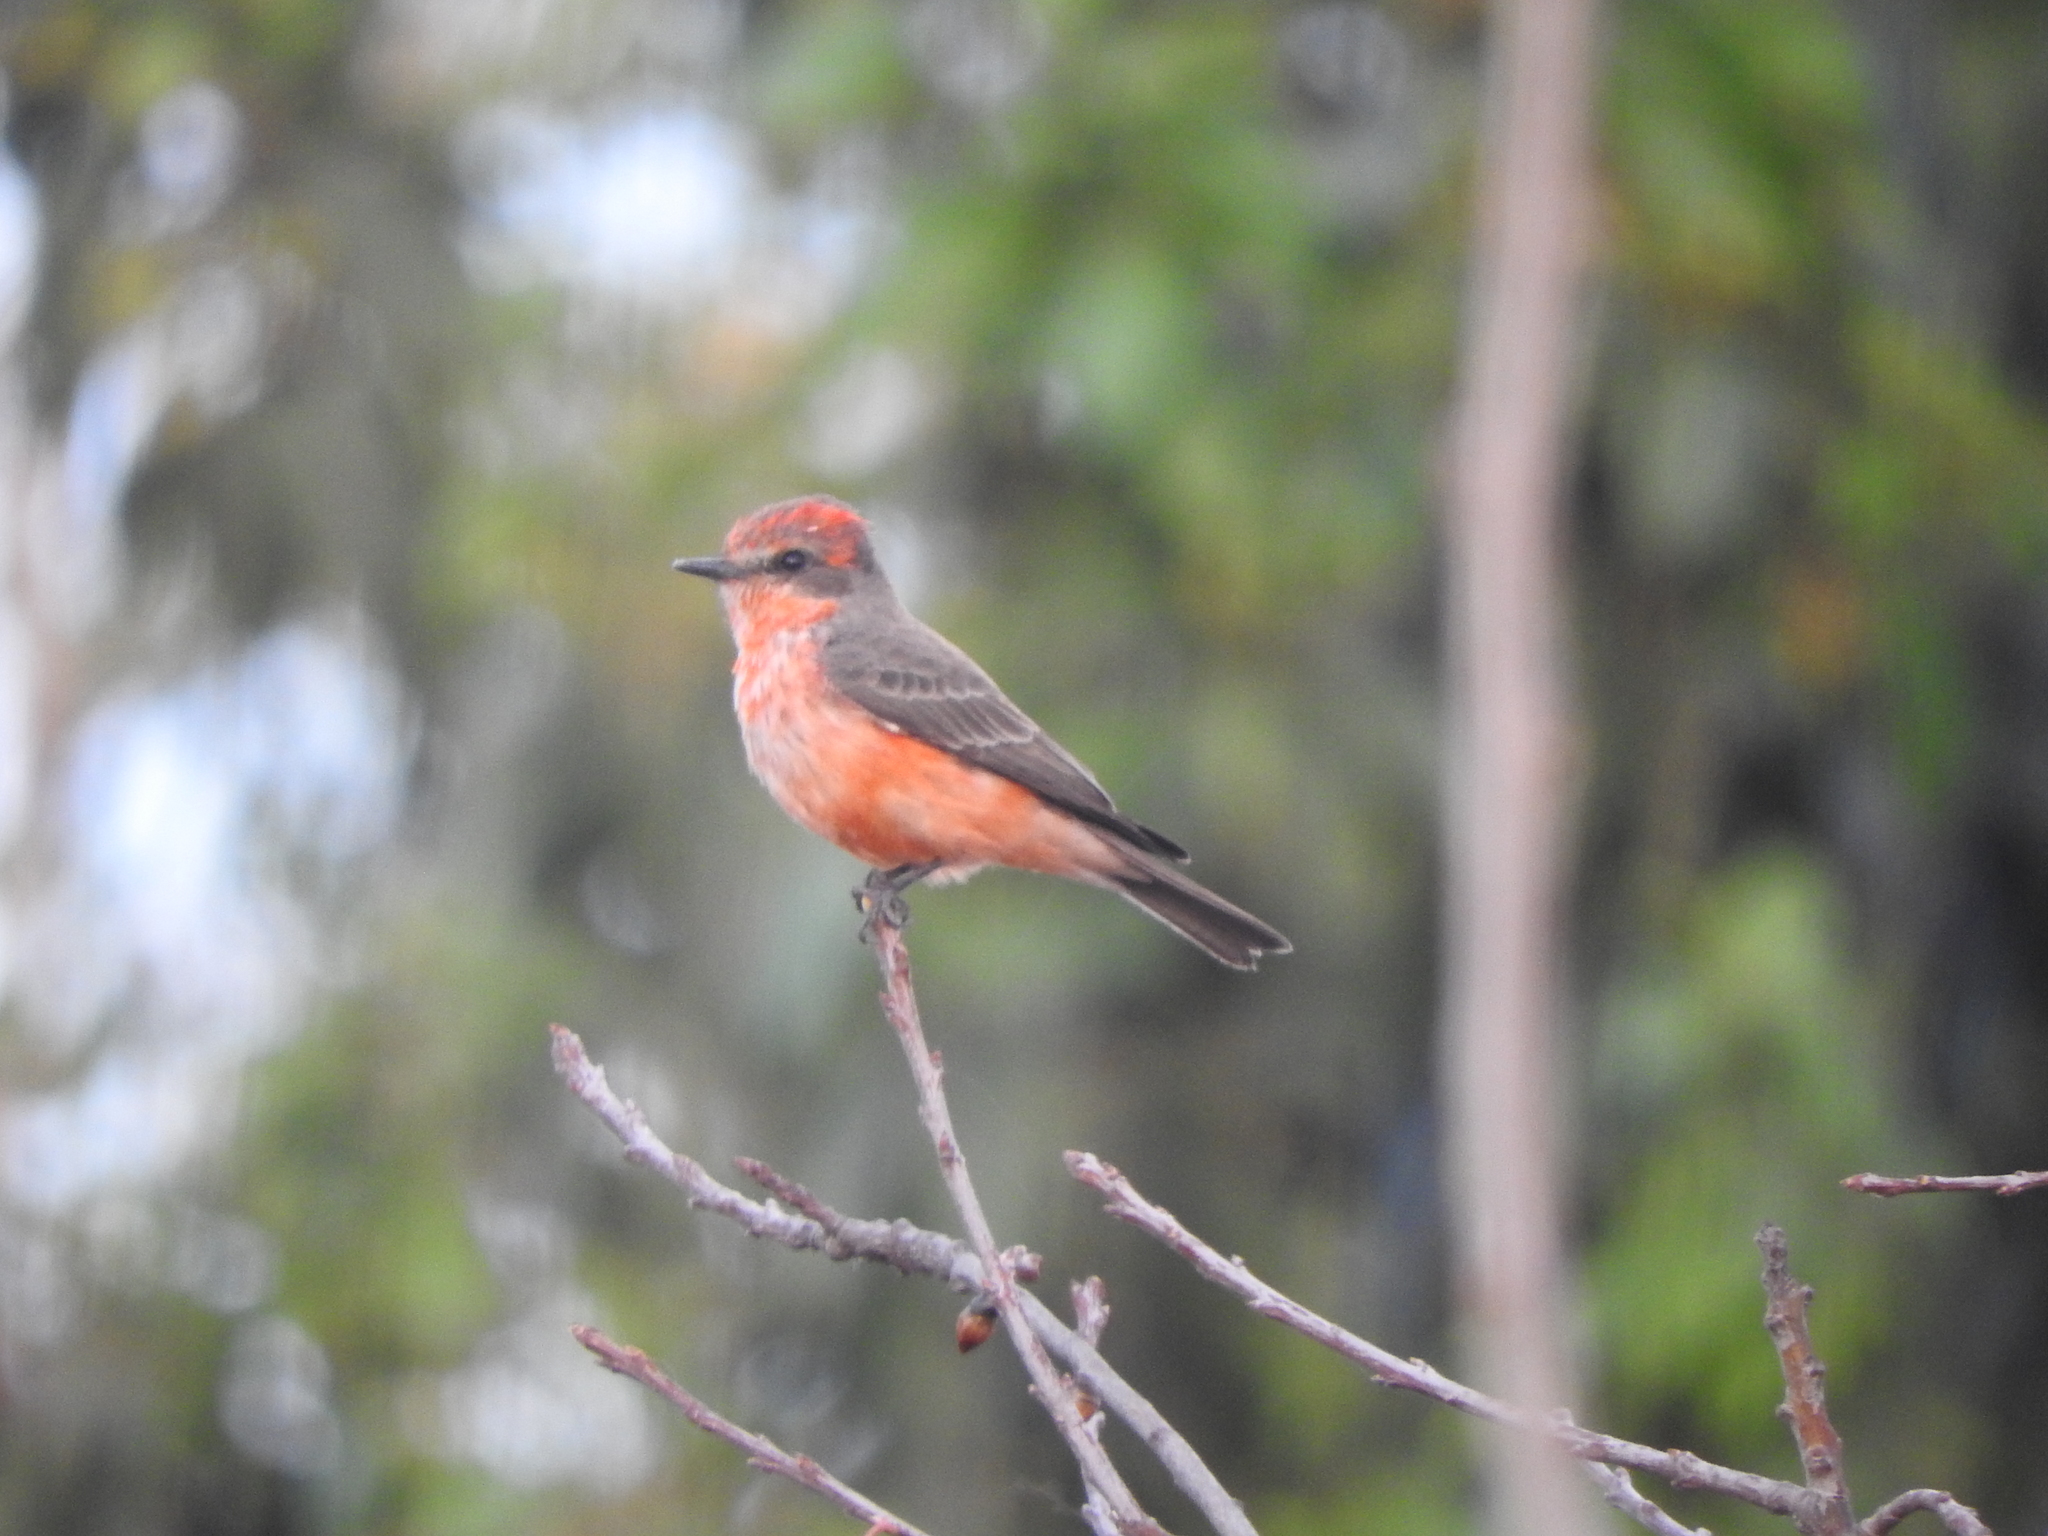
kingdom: Animalia
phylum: Chordata
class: Aves
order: Passeriformes
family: Tyrannidae
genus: Pyrocephalus
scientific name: Pyrocephalus rubinus
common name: Vermilion flycatcher
